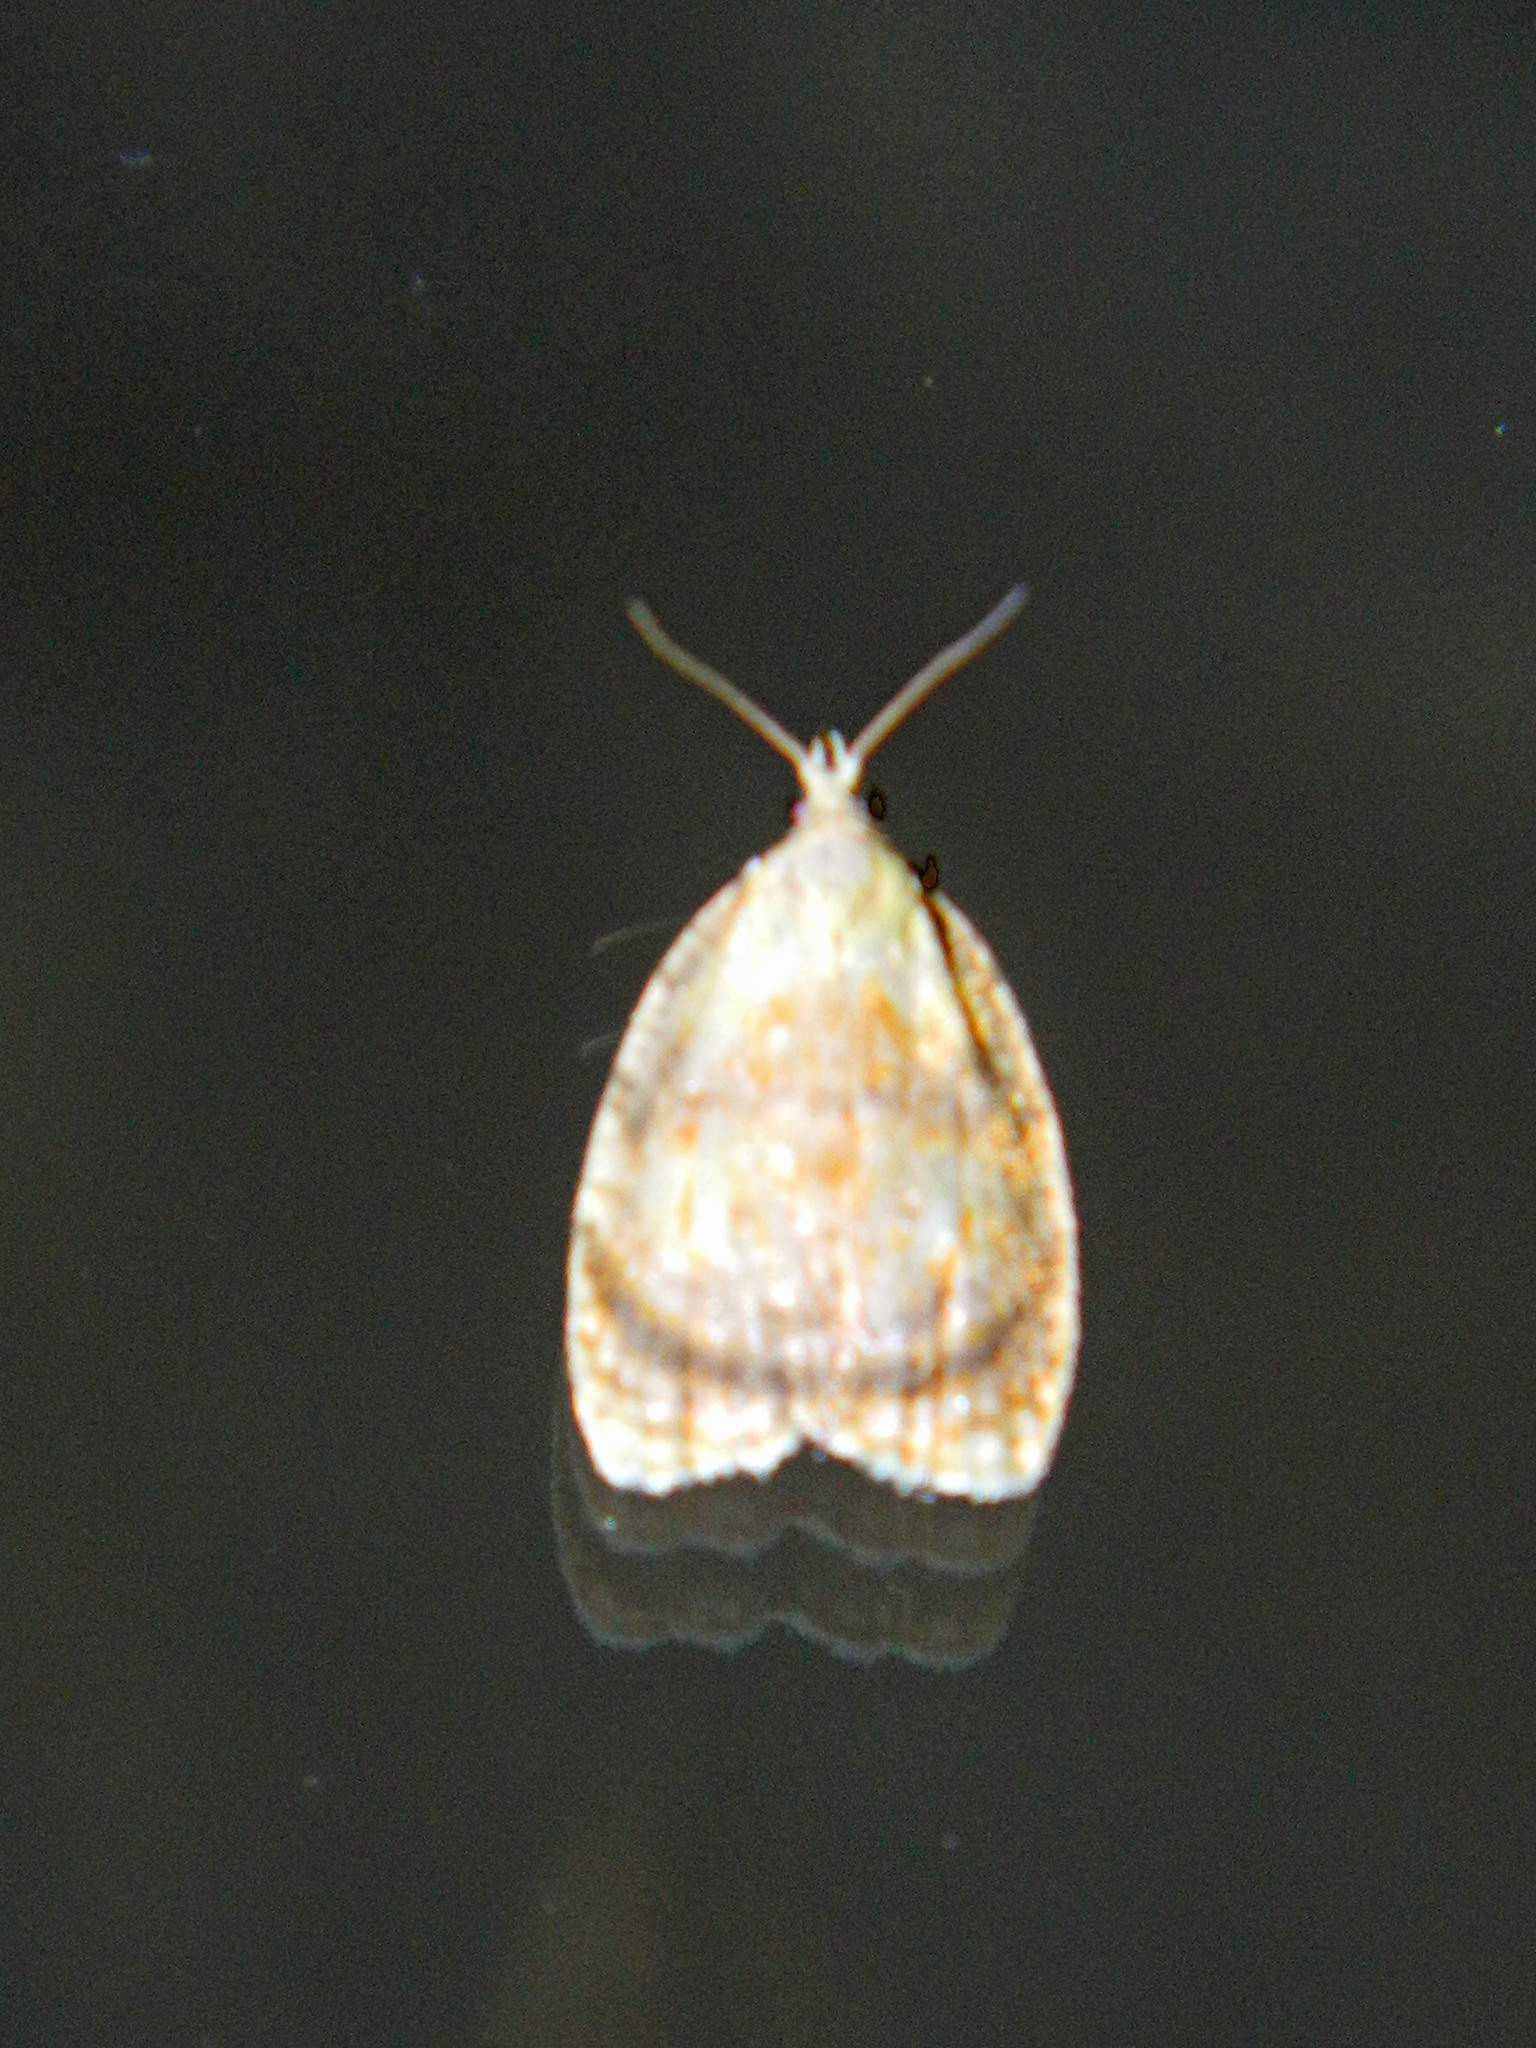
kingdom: Animalia
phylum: Arthropoda
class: Insecta
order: Lepidoptera
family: Tortricidae
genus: Acleris
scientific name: Acleris curvalana
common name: Blueberry leaftier moth
